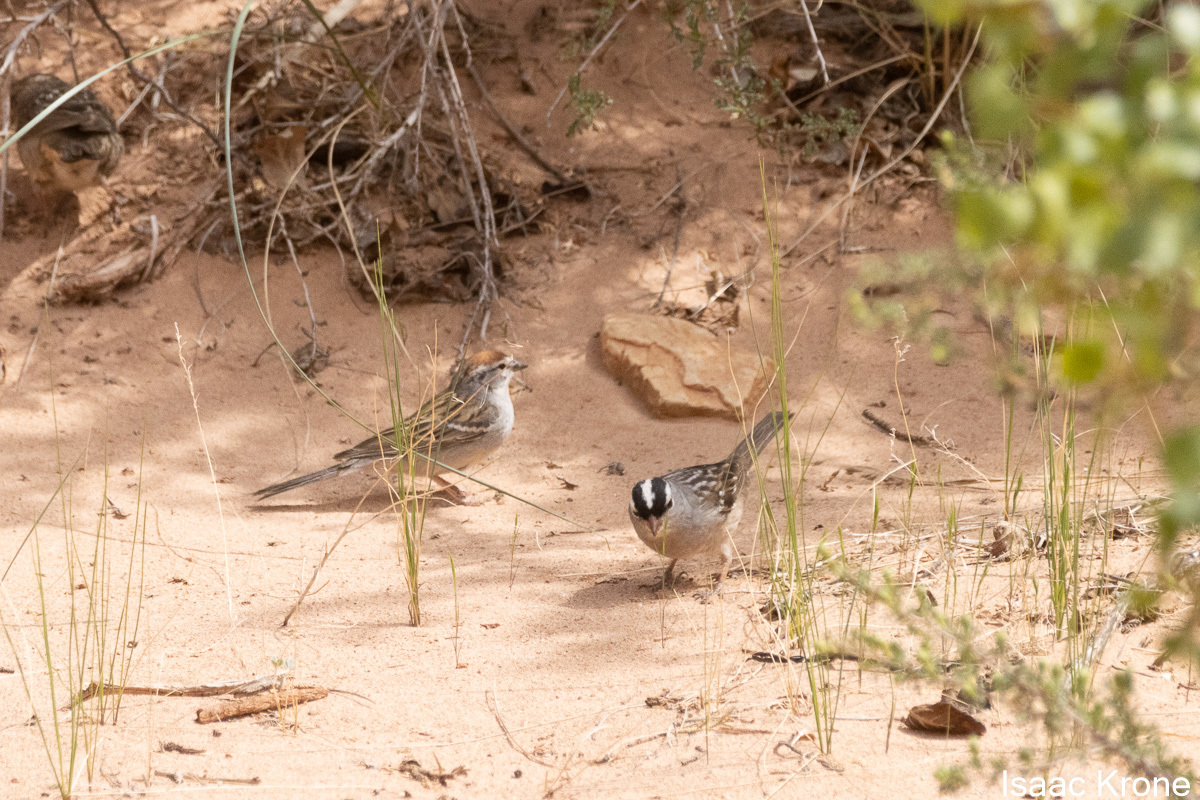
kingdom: Animalia
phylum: Chordata
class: Aves
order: Passeriformes
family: Passerellidae
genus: Zonotrichia
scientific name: Zonotrichia leucophrys
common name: White-crowned sparrow
